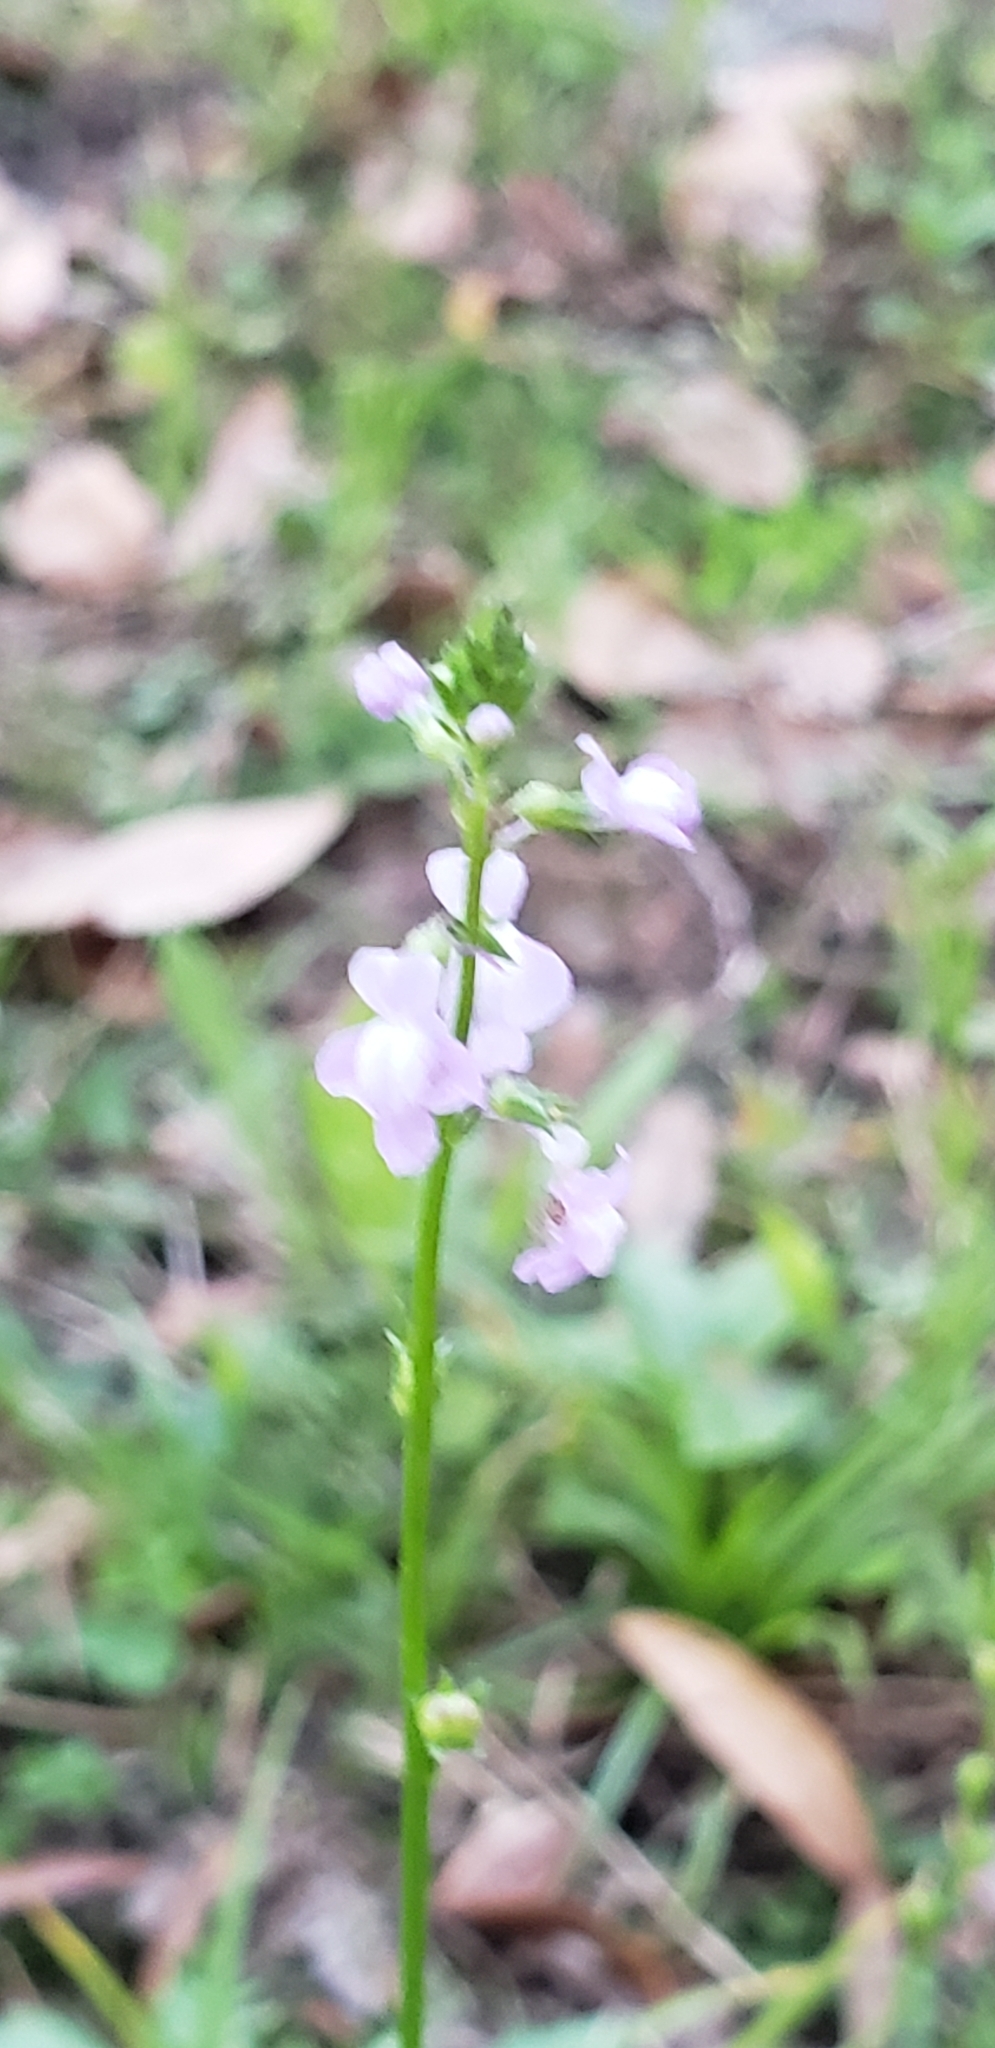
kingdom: Plantae
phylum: Tracheophyta
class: Magnoliopsida
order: Lamiales
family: Plantaginaceae
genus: Nuttallanthus
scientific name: Nuttallanthus canadensis
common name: Blue toadflax
